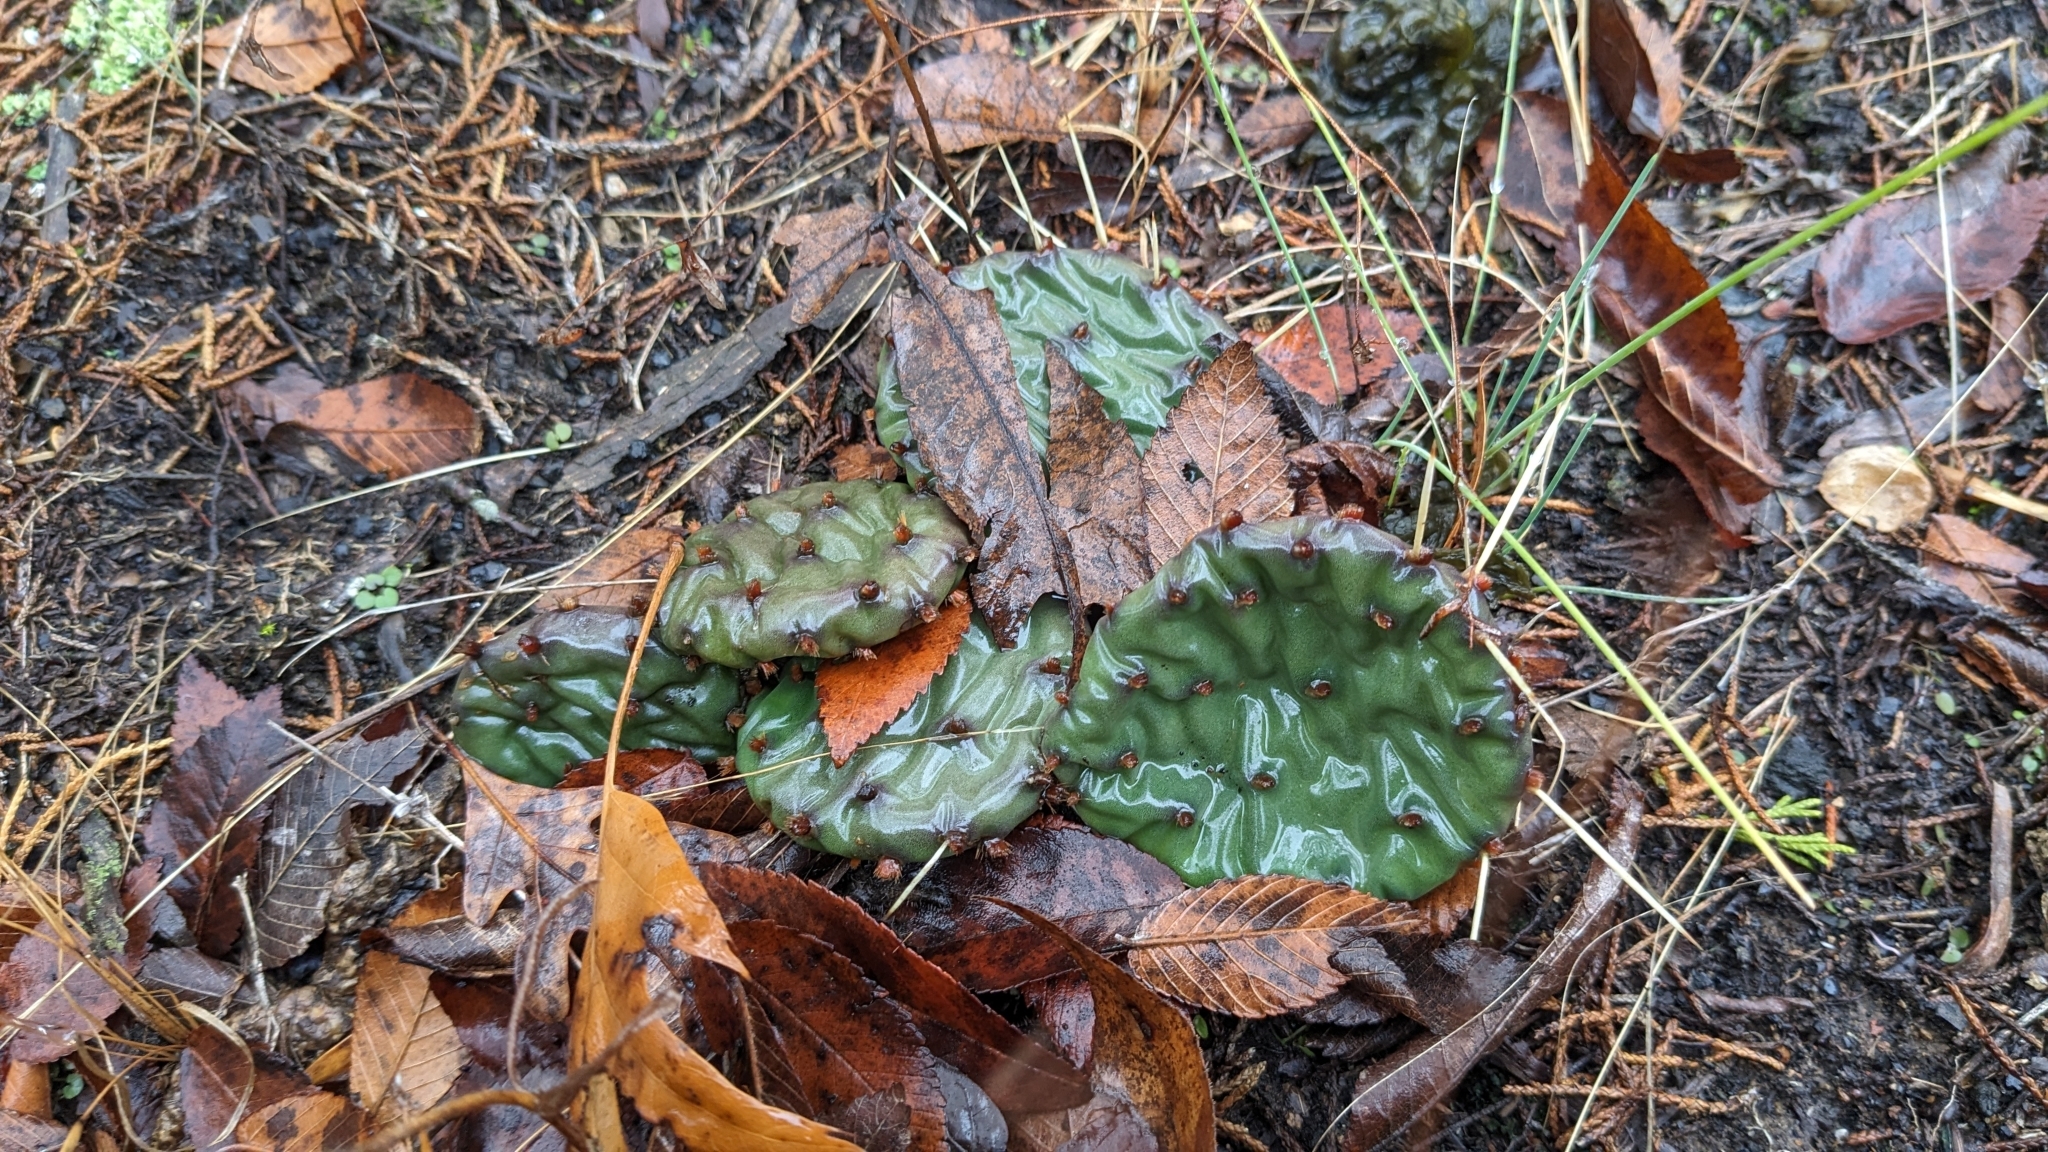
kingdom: Plantae
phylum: Tracheophyta
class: Magnoliopsida
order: Caryophyllales
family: Cactaceae
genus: Opuntia
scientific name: Opuntia humifusa
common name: Eastern prickly-pear
